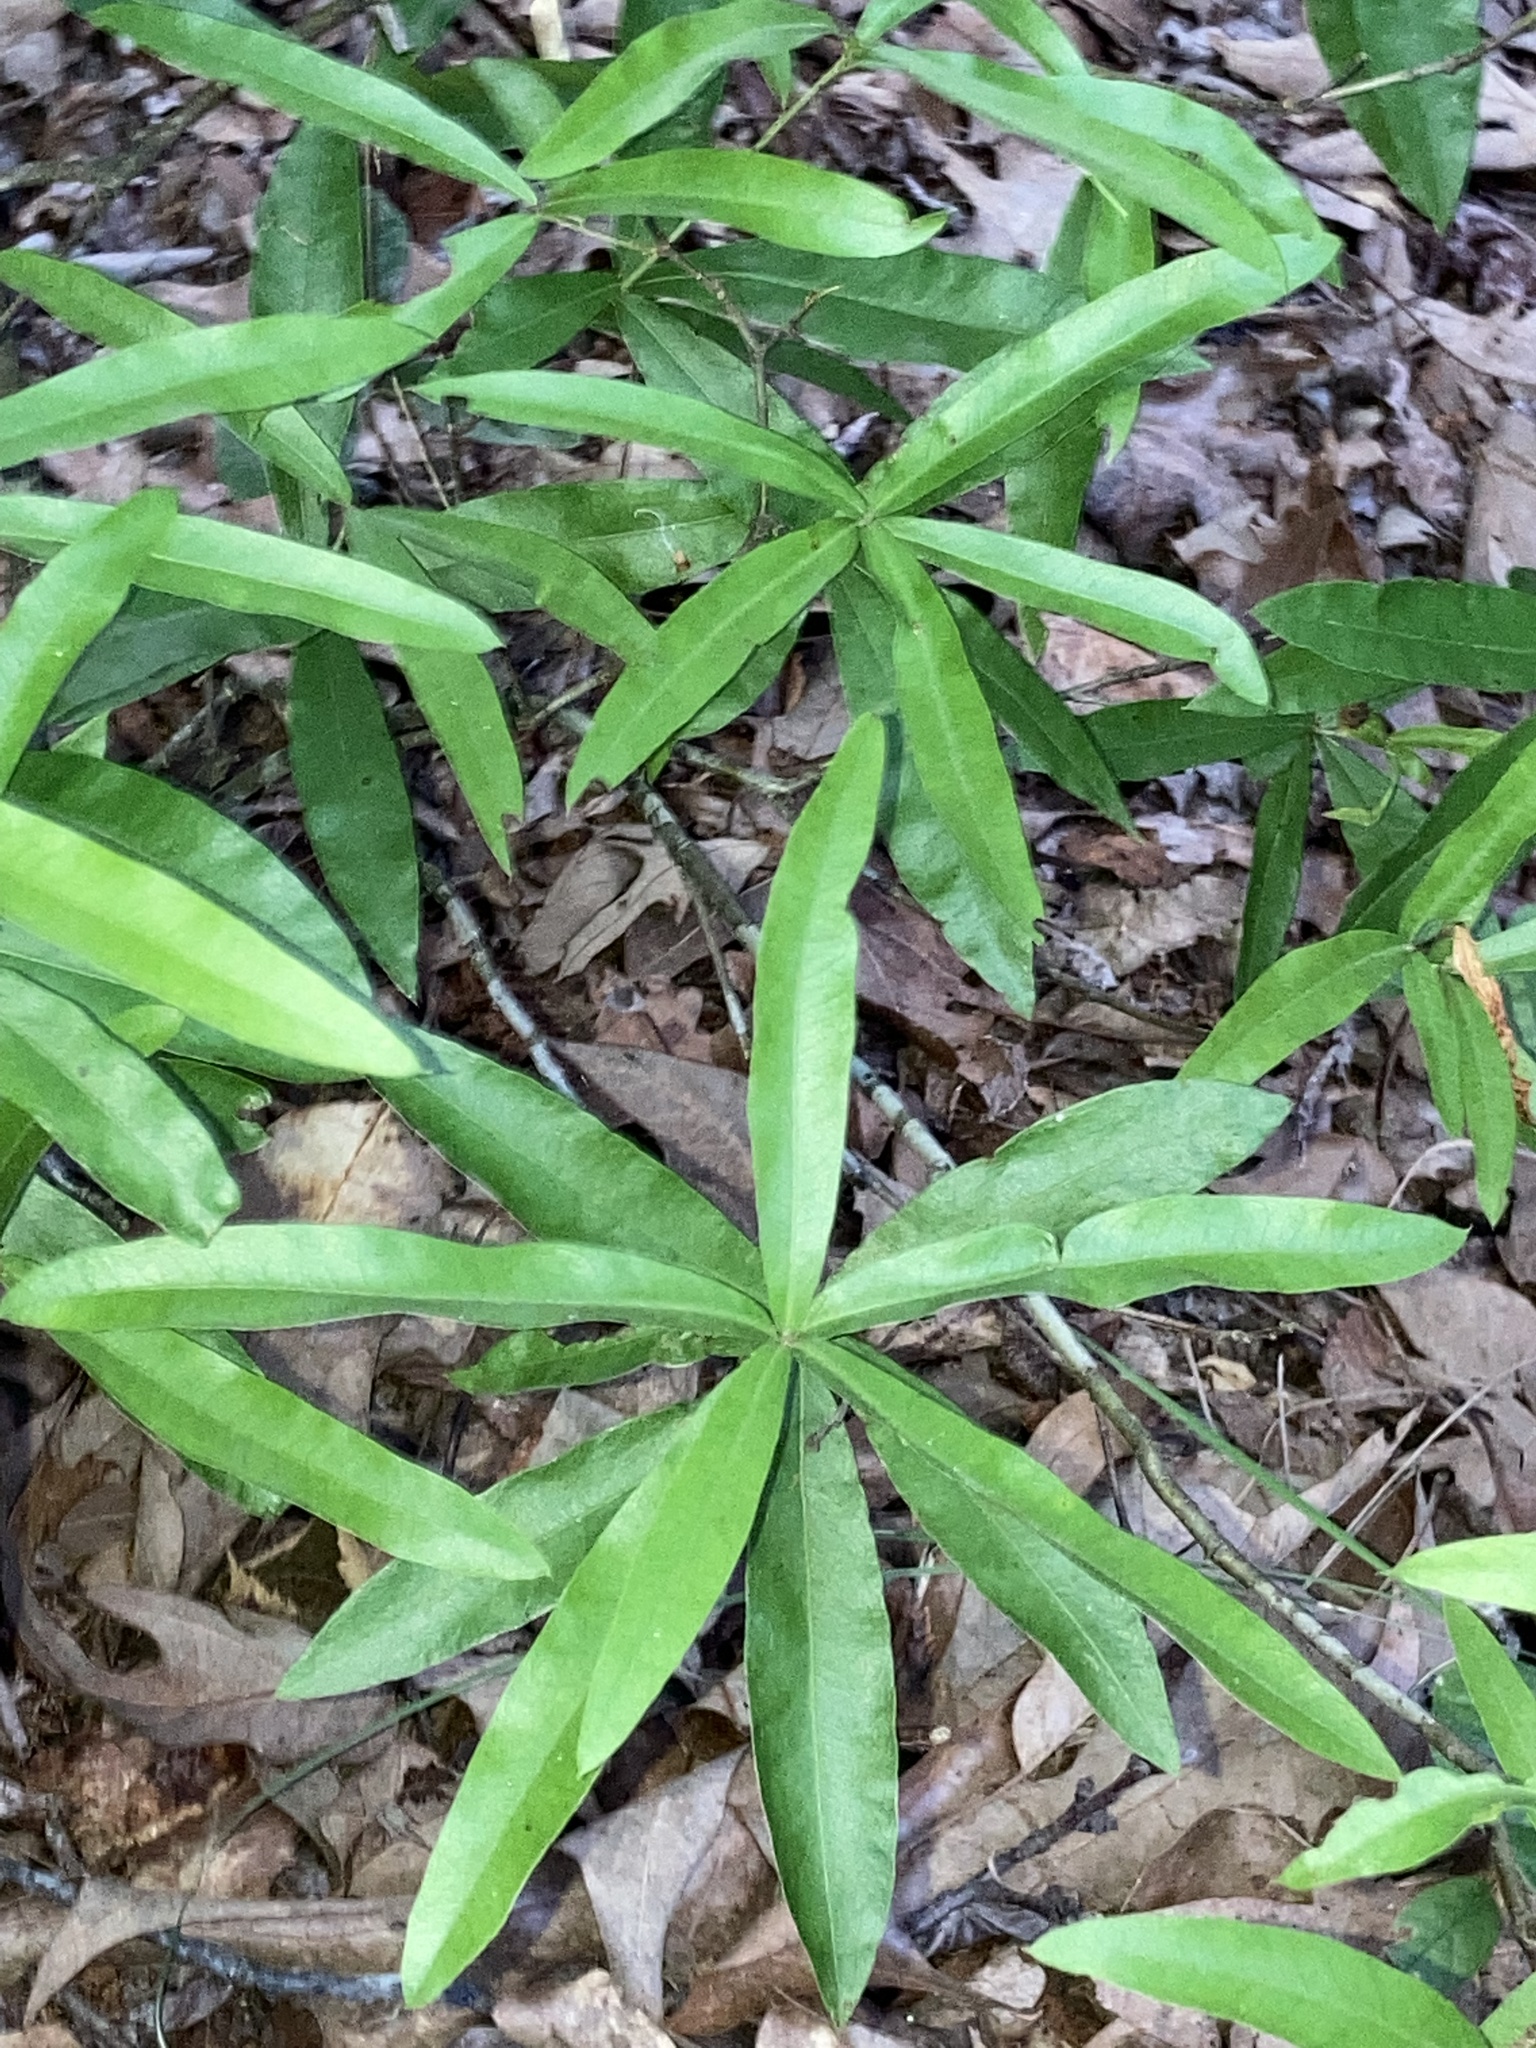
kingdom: Plantae
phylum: Tracheophyta
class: Magnoliopsida
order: Fagales
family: Fagaceae
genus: Quercus
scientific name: Quercus phellos
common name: Willow oak
